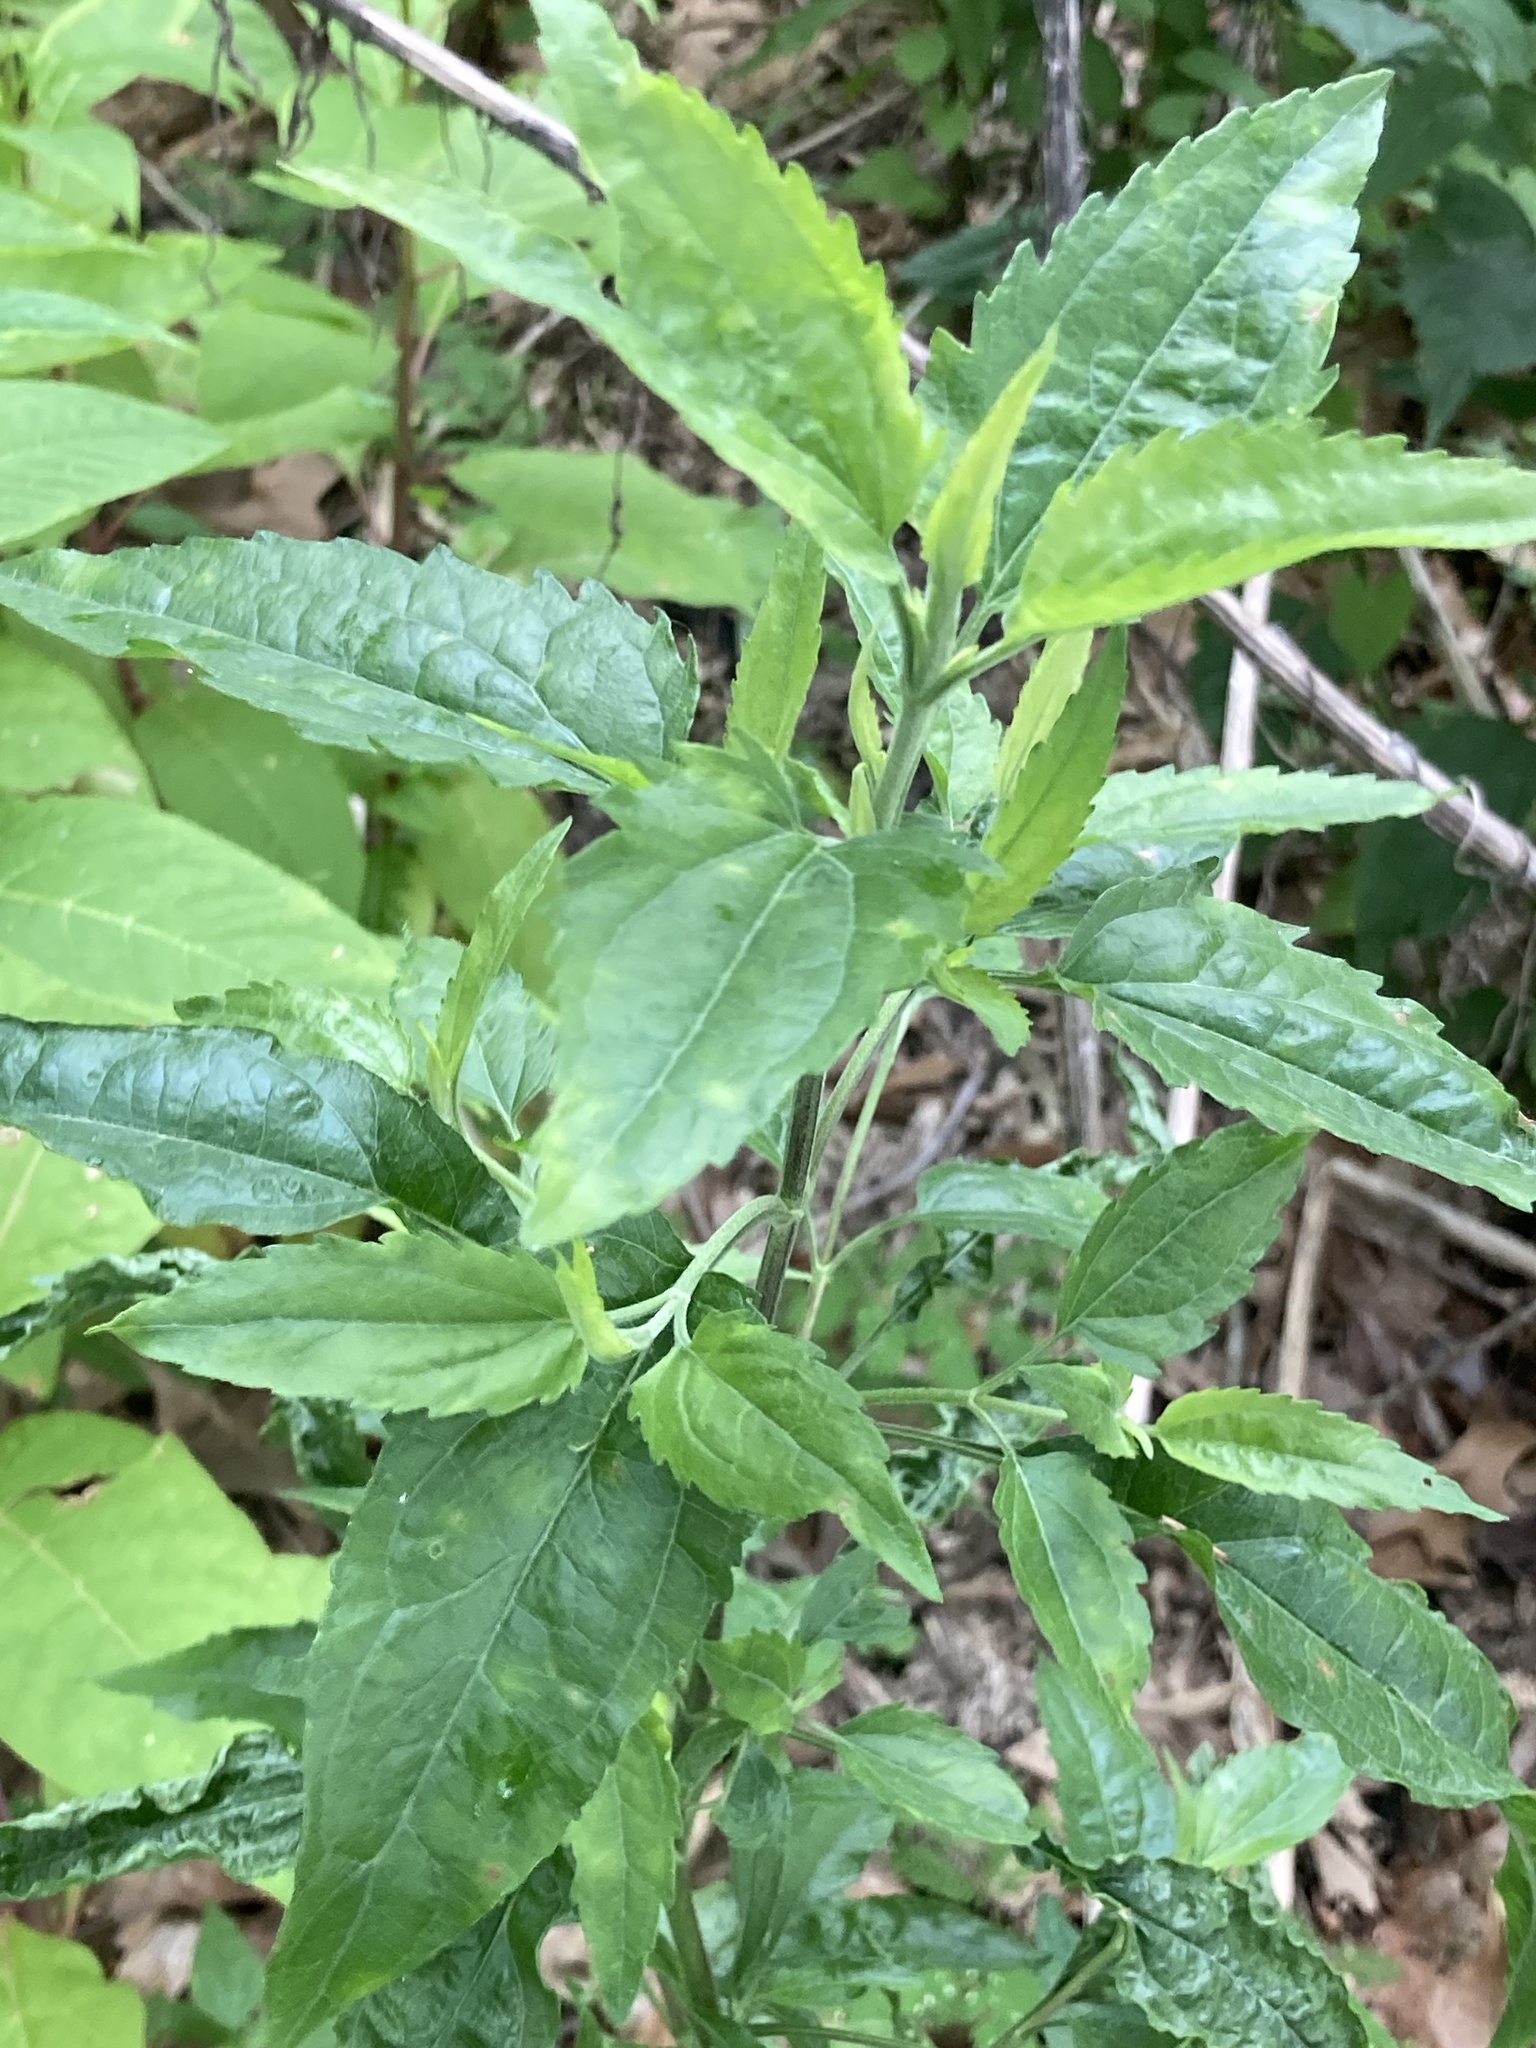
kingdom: Plantae
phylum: Tracheophyta
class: Magnoliopsida
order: Asterales
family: Asteraceae
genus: Eupatorium
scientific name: Eupatorium serotinum
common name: Late boneset
